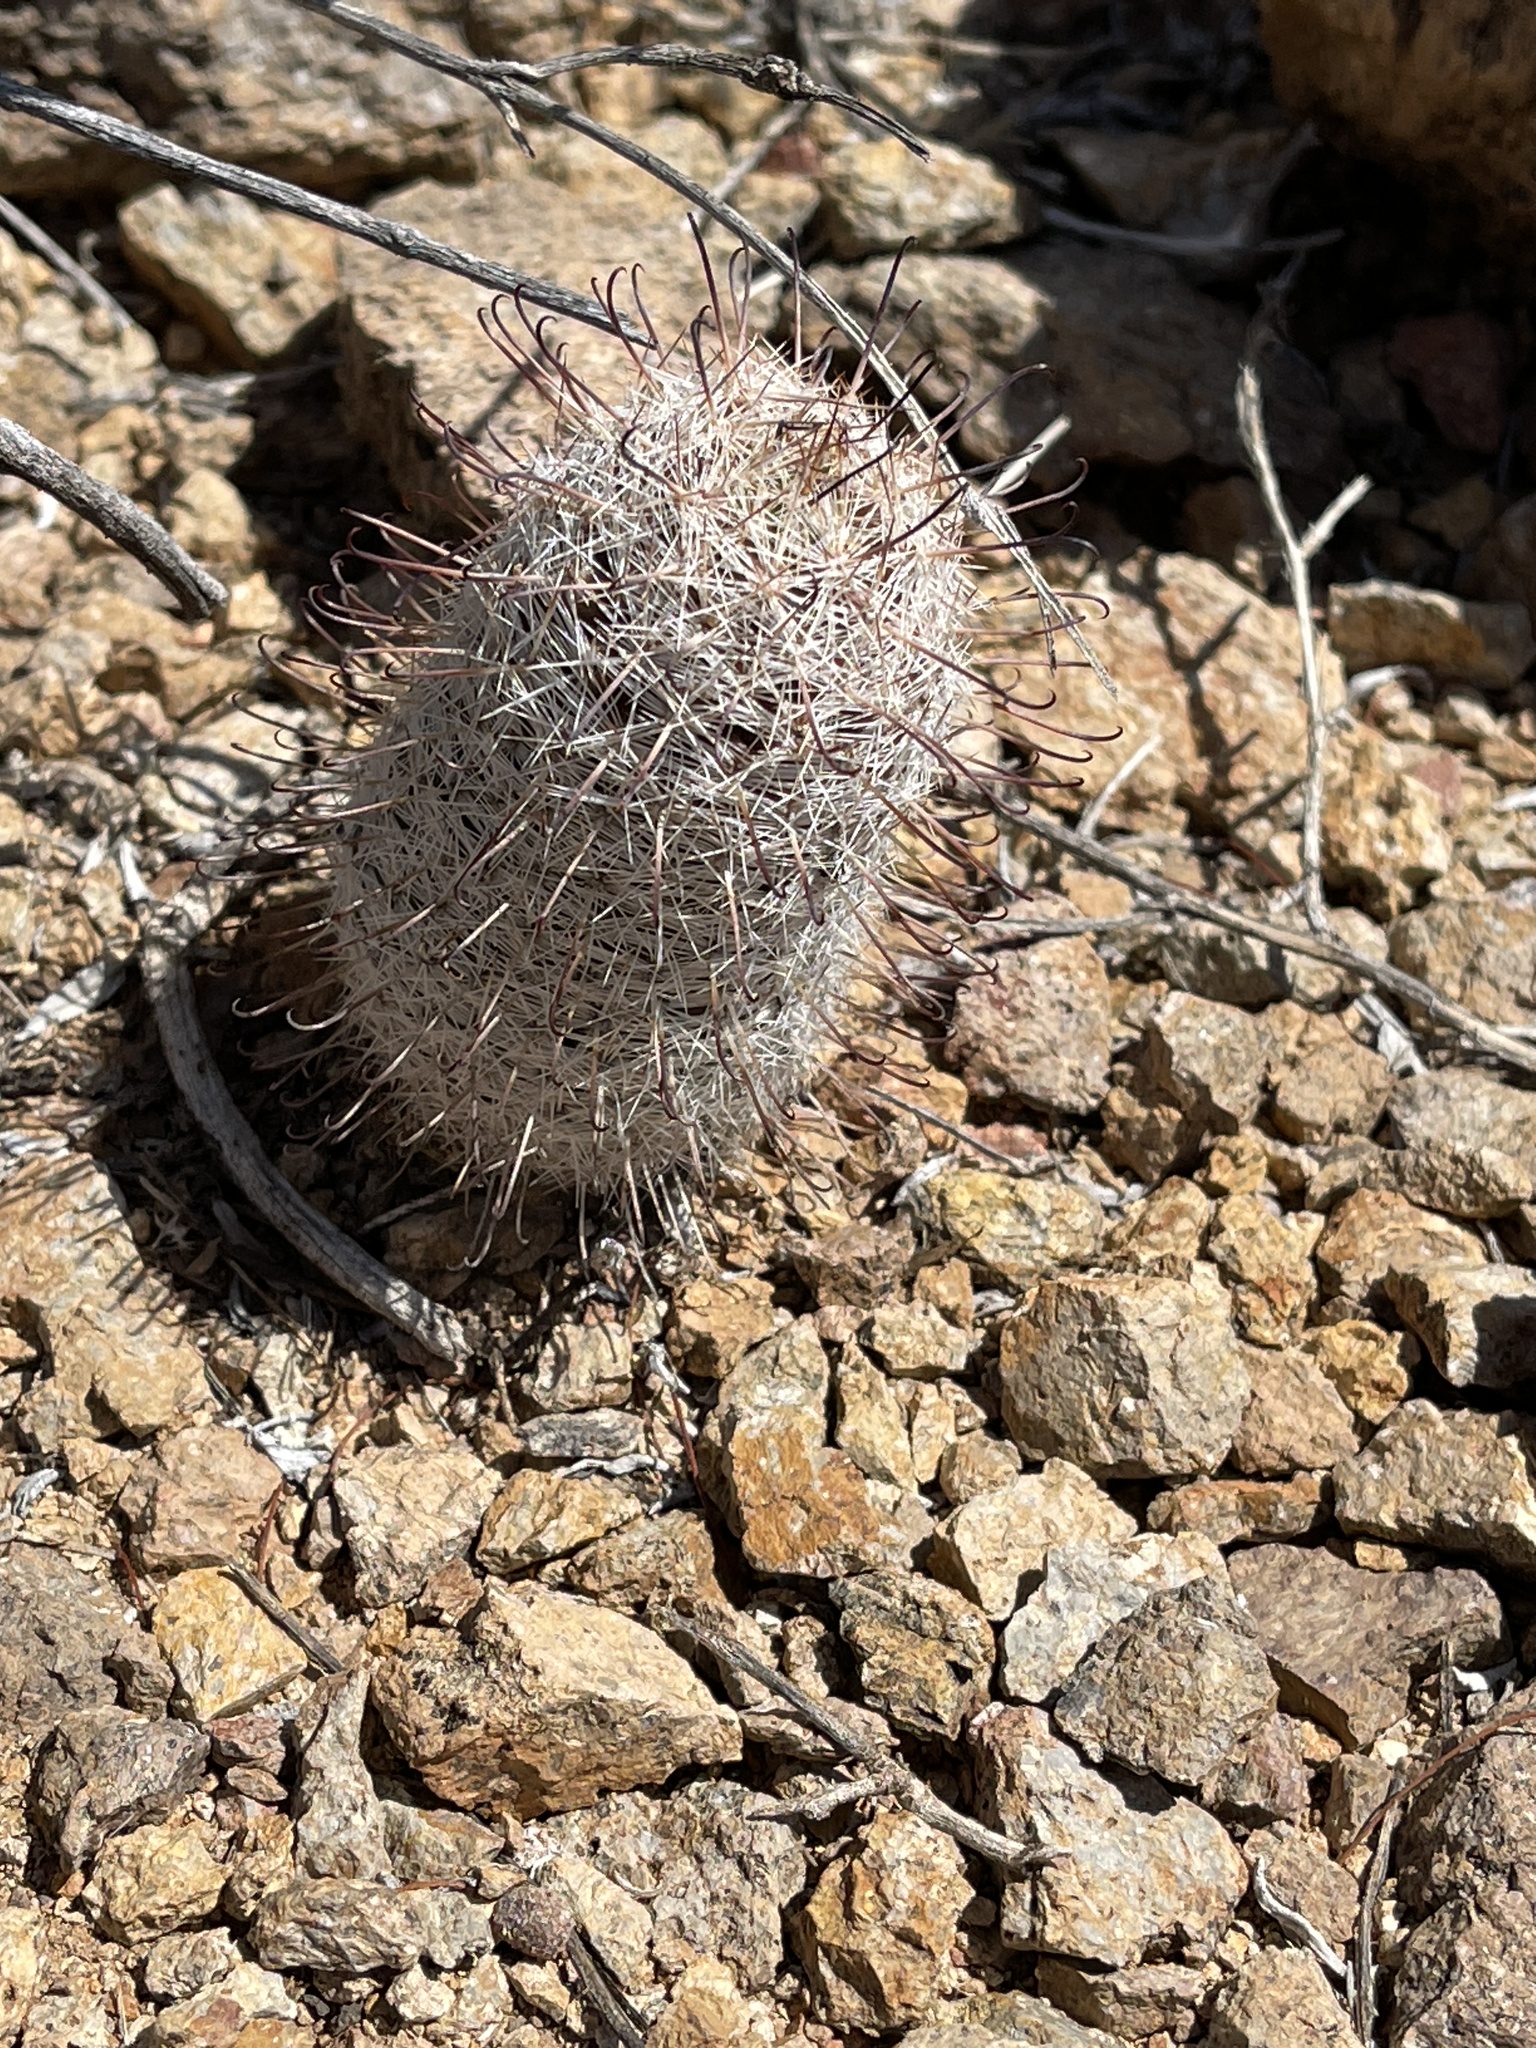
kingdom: Plantae
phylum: Tracheophyta
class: Magnoliopsida
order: Caryophyllales
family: Cactaceae
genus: Cochemiea
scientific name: Cochemiea grahamii
